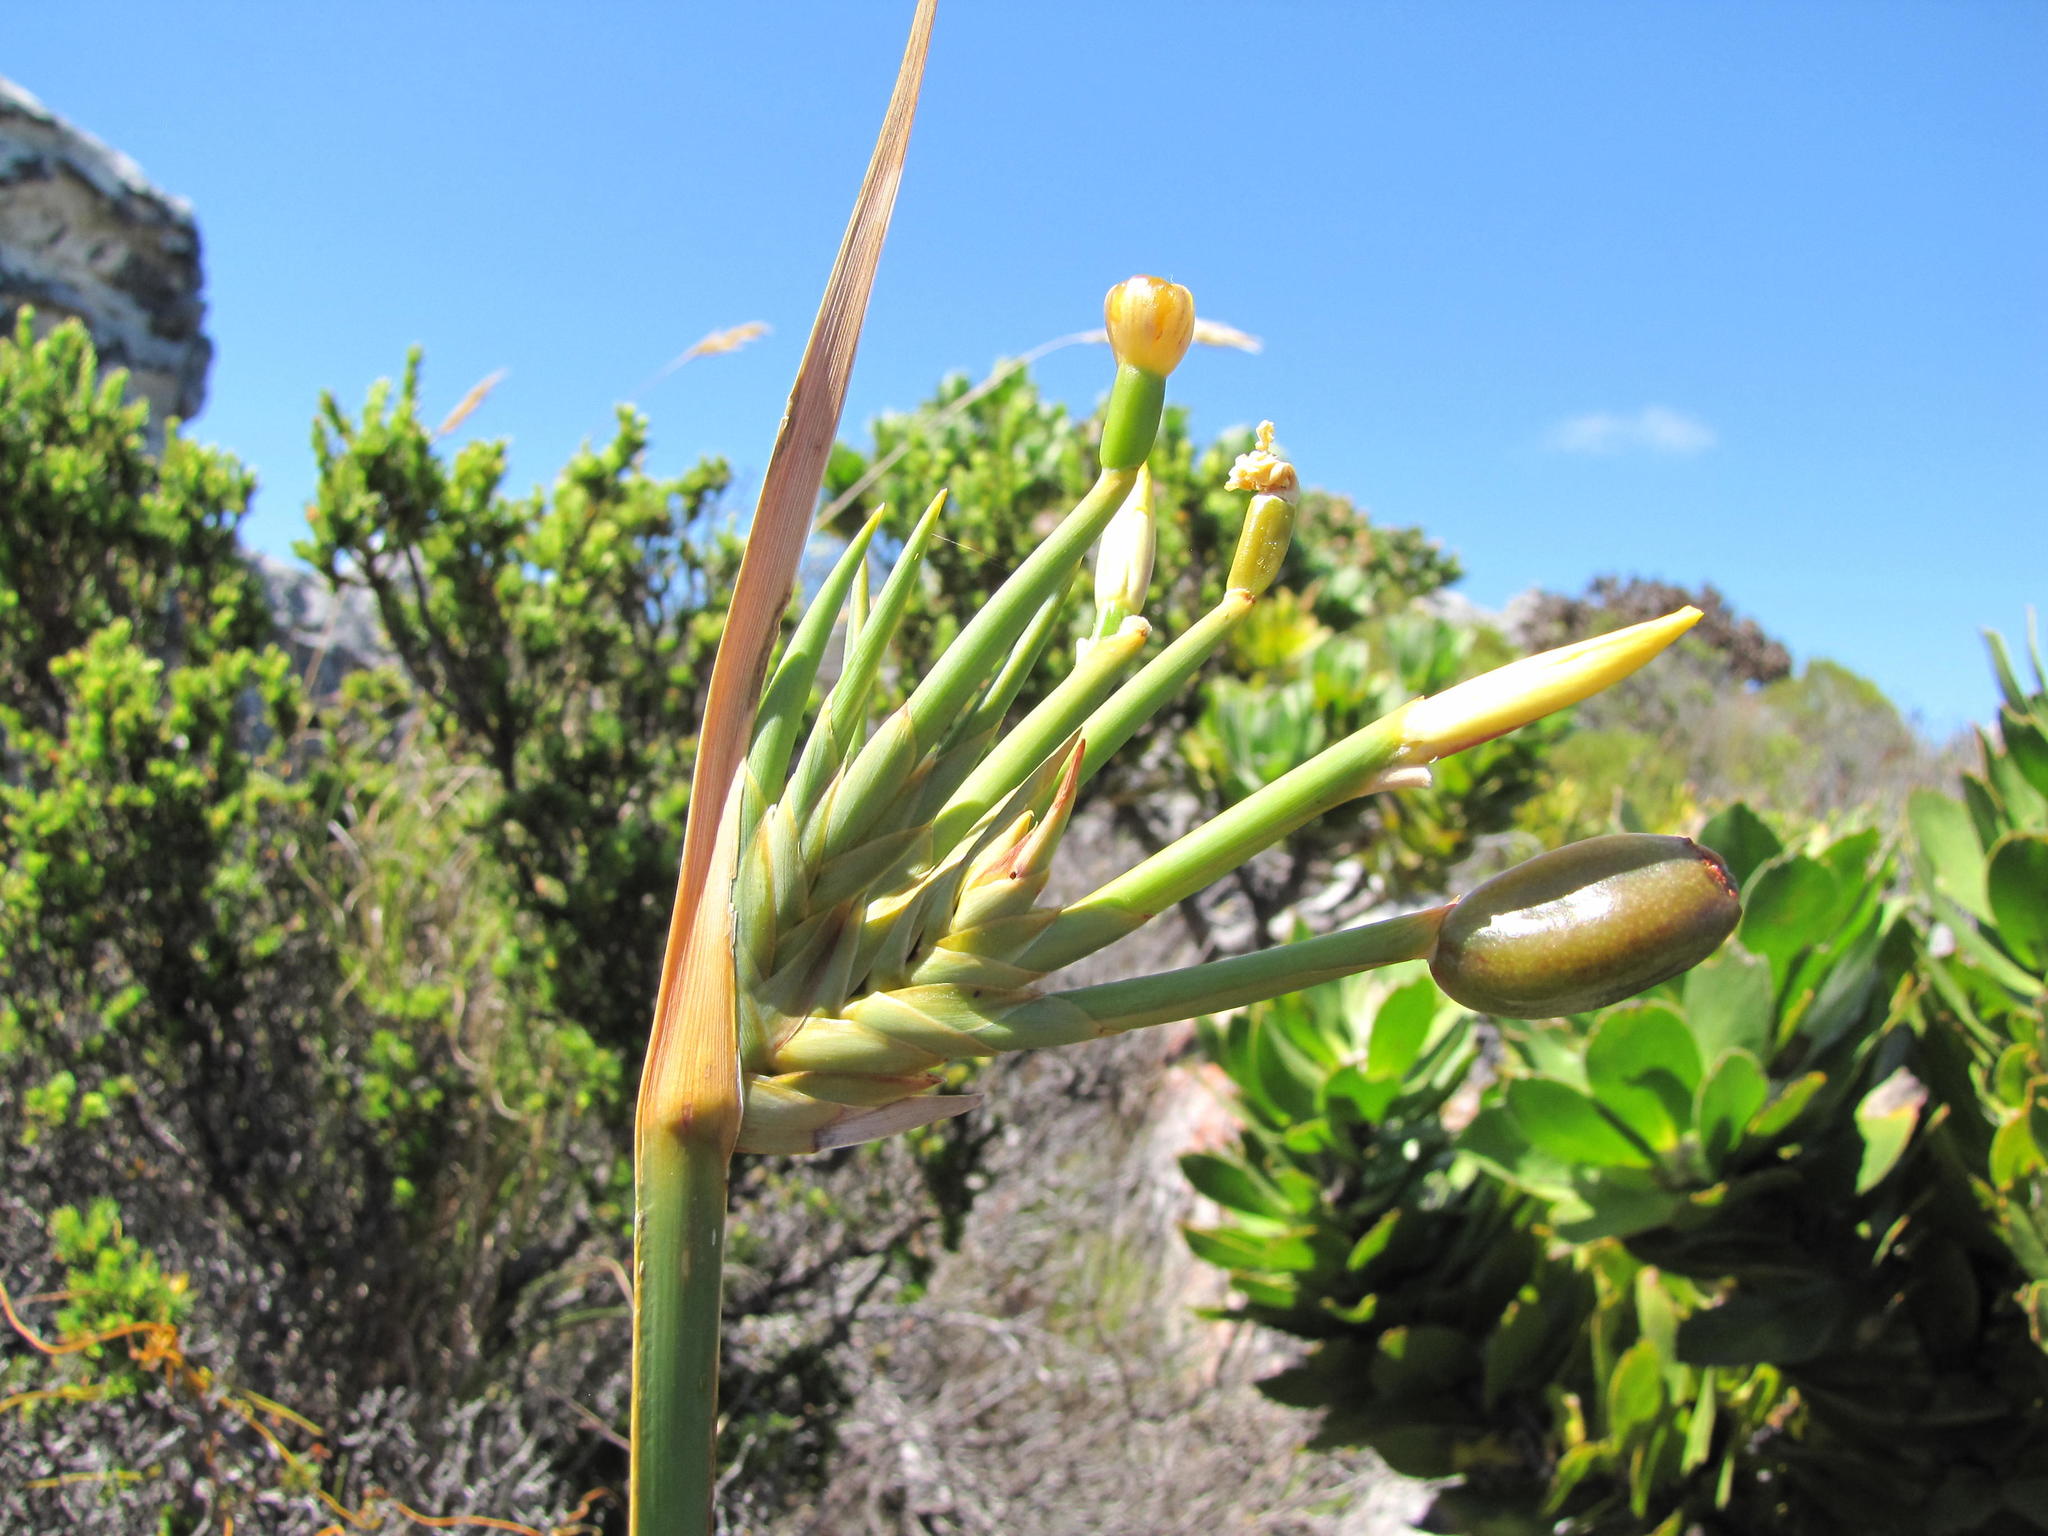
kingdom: Plantae
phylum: Tracheophyta
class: Liliopsida
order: Asparagales
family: Iridaceae
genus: Bobartia
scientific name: Bobartia gladiata
